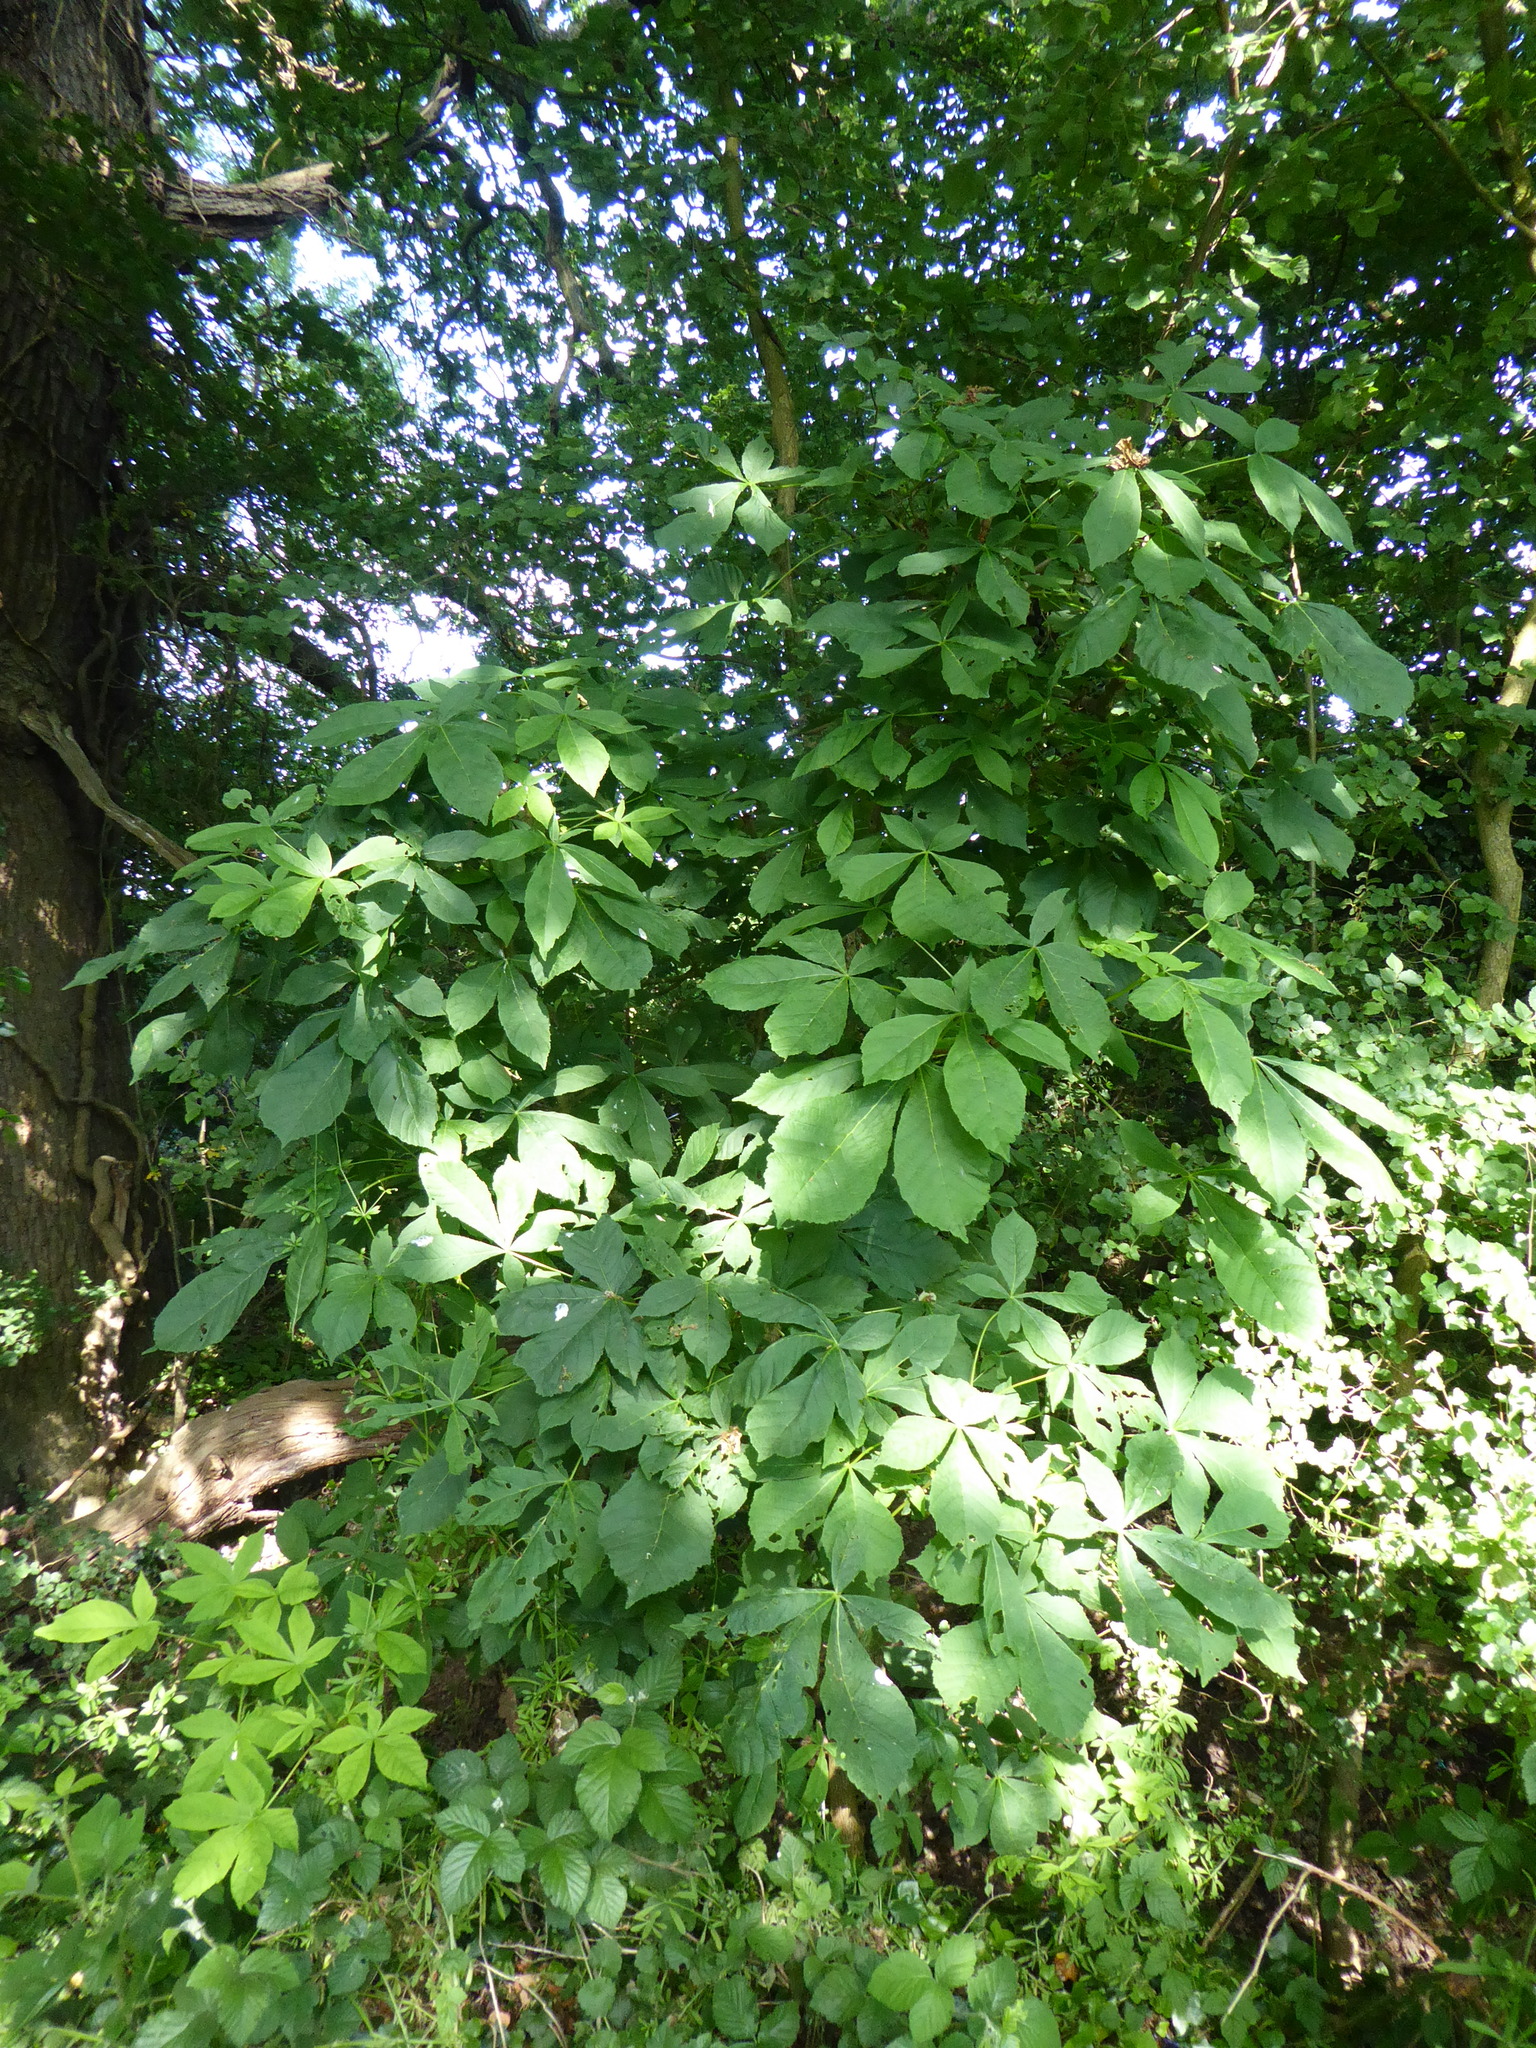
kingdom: Plantae
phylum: Tracheophyta
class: Magnoliopsida
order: Sapindales
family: Sapindaceae
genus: Aesculus
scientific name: Aesculus hippocastanum
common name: Horse-chestnut
